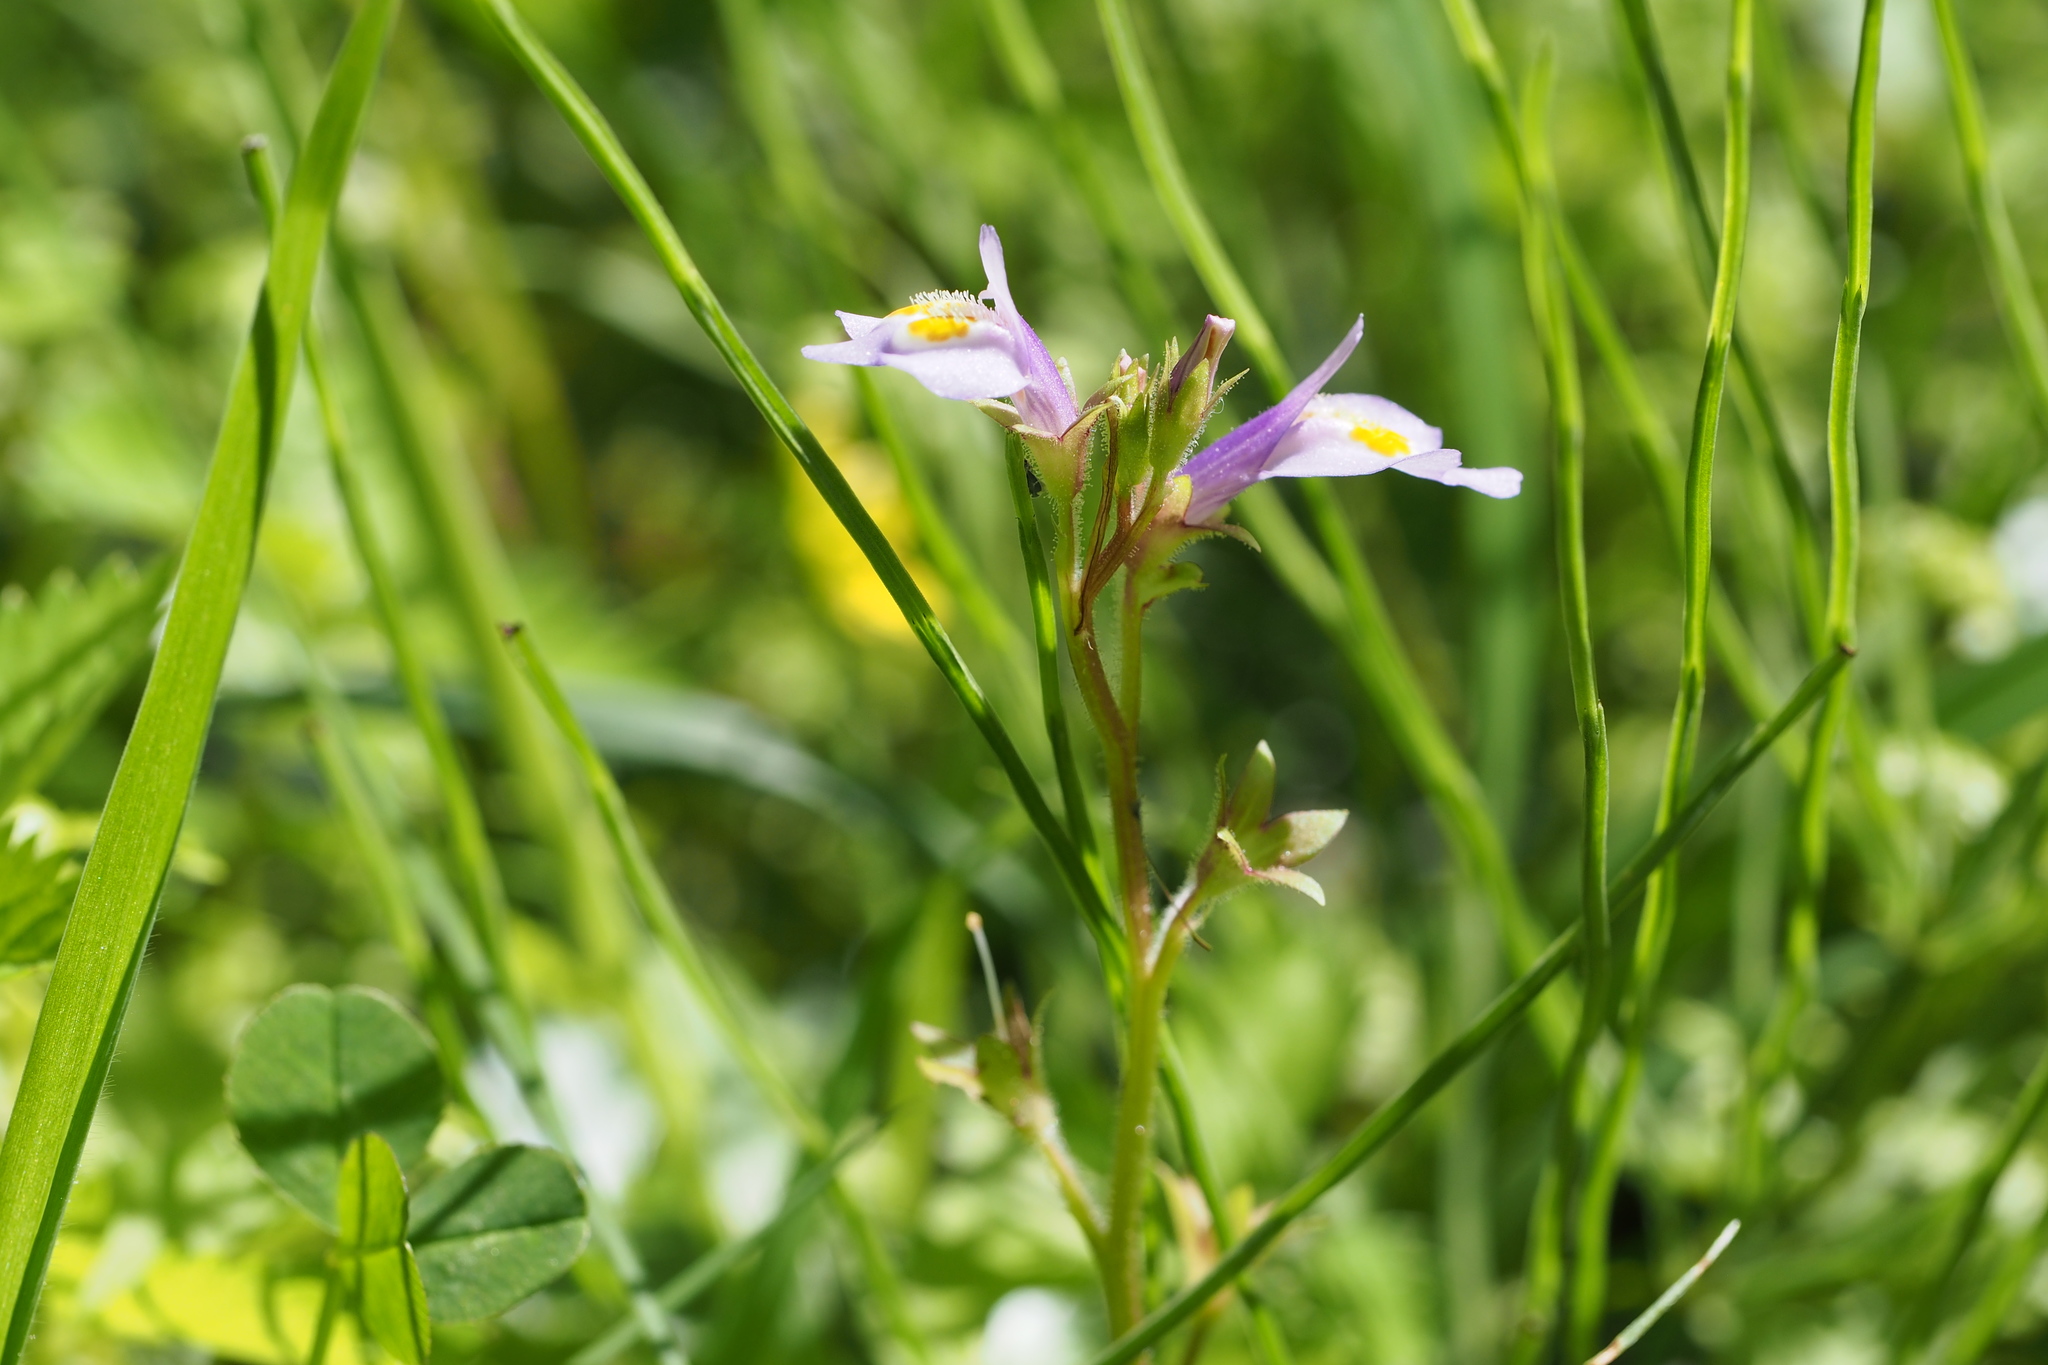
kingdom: Plantae
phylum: Tracheophyta
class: Magnoliopsida
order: Lamiales
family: Mazaceae
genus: Mazus
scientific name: Mazus pumilus
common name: Japanese mazus
